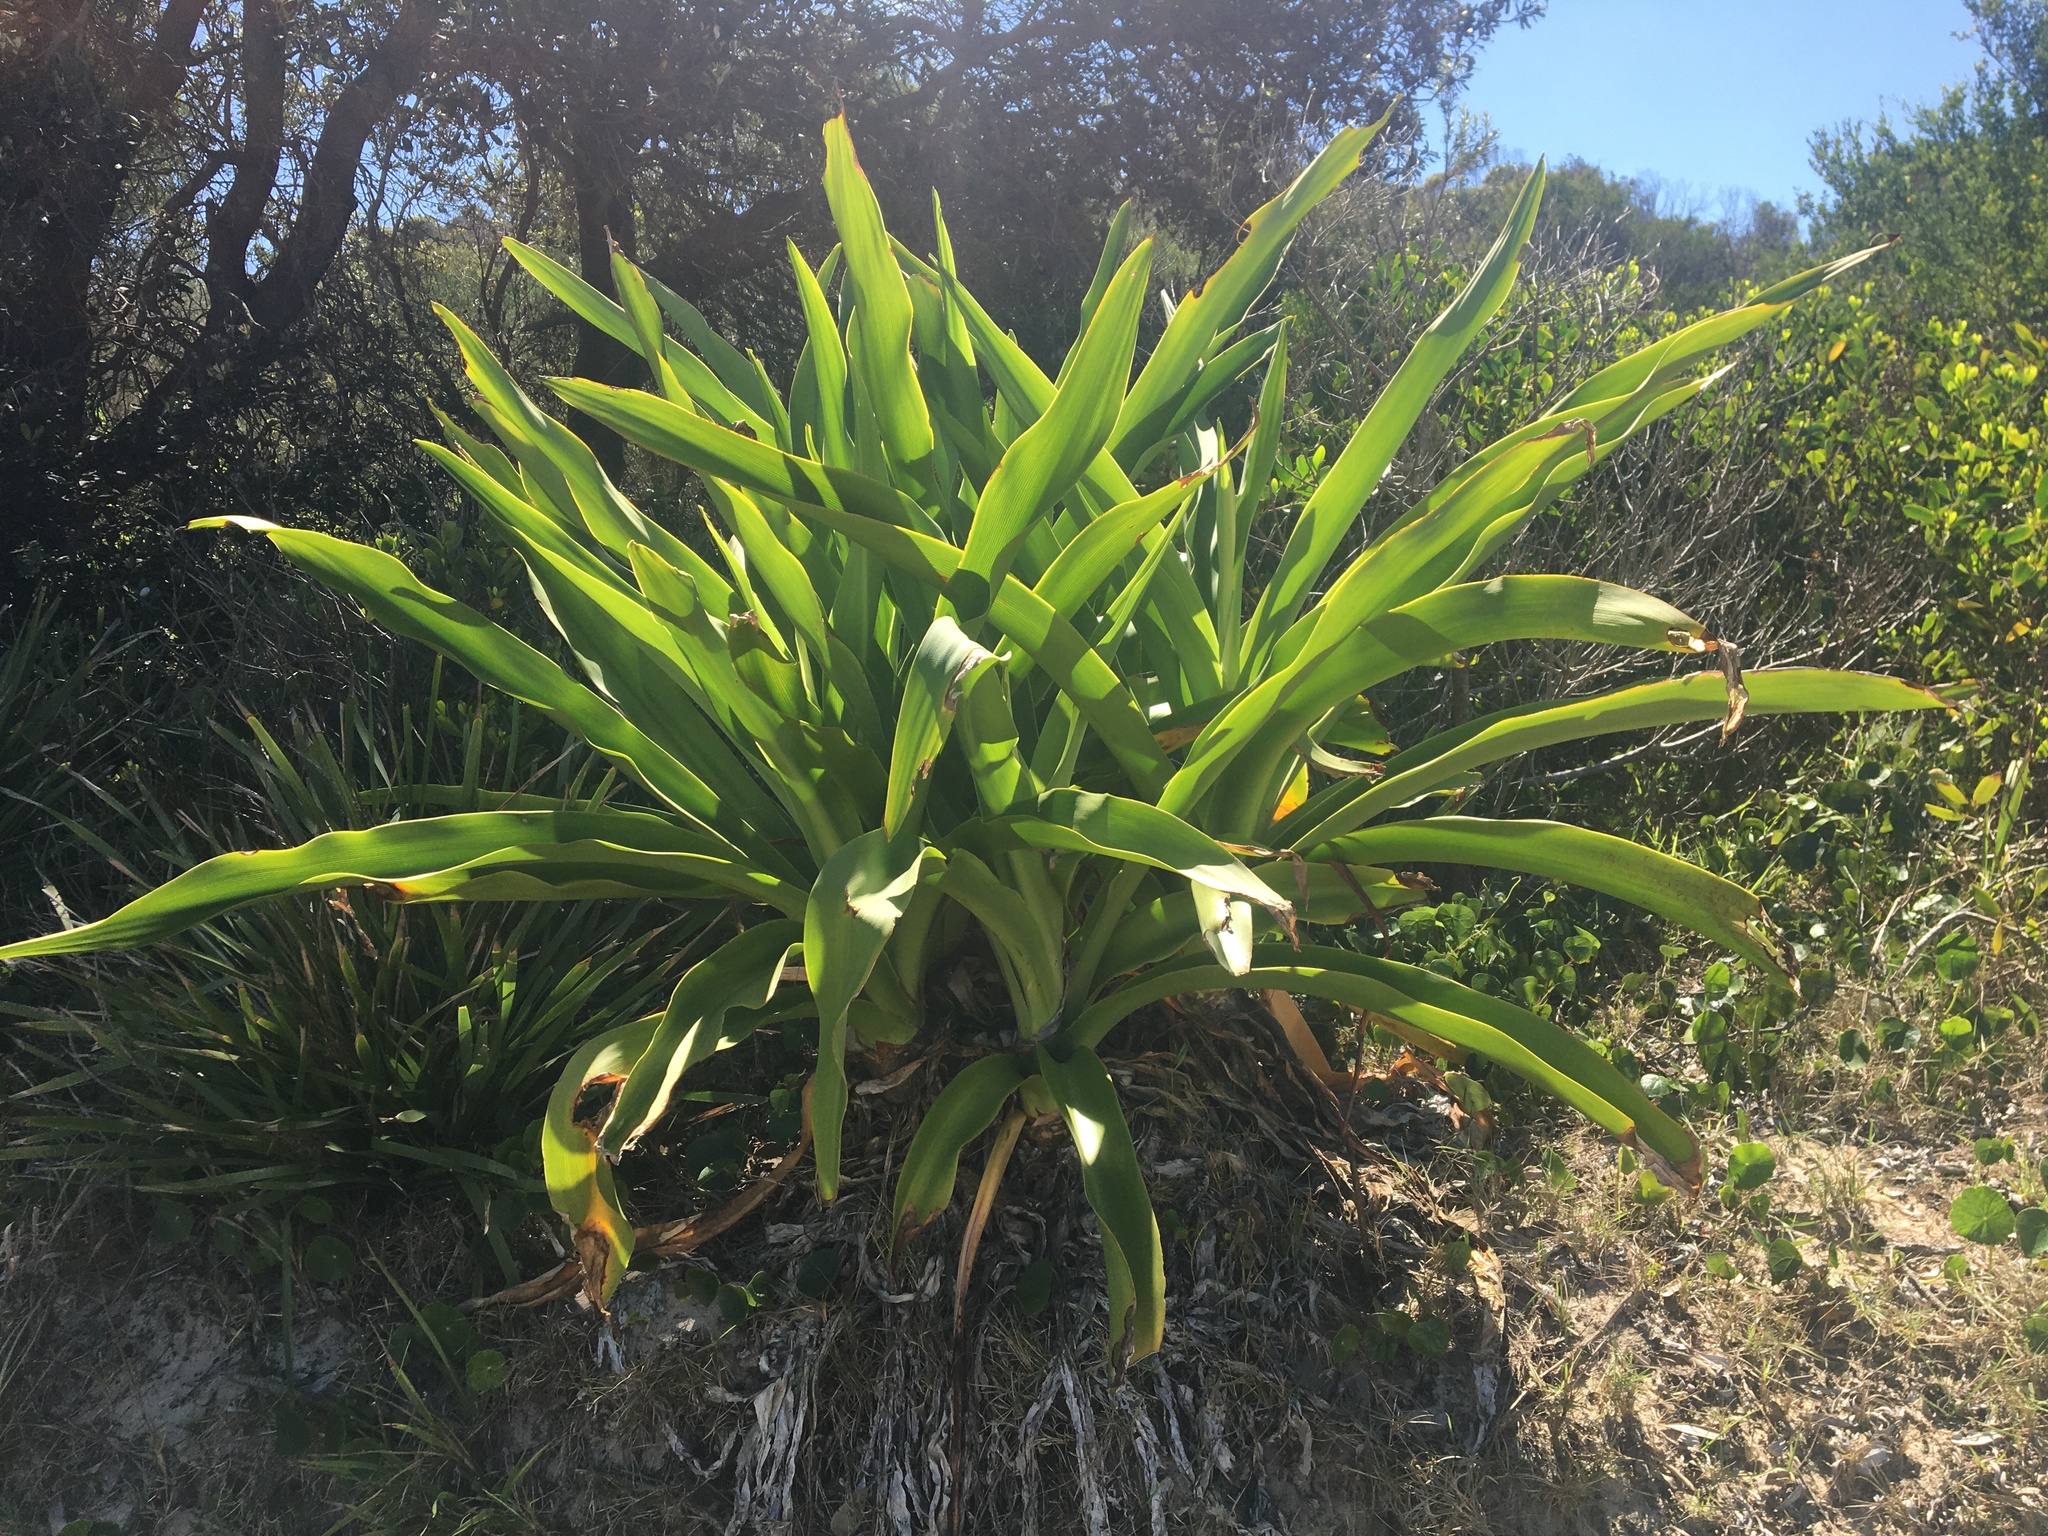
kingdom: Plantae
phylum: Tracheophyta
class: Liliopsida
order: Asparagales
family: Amaryllidaceae
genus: Crinum
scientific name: Crinum pedunculatum
